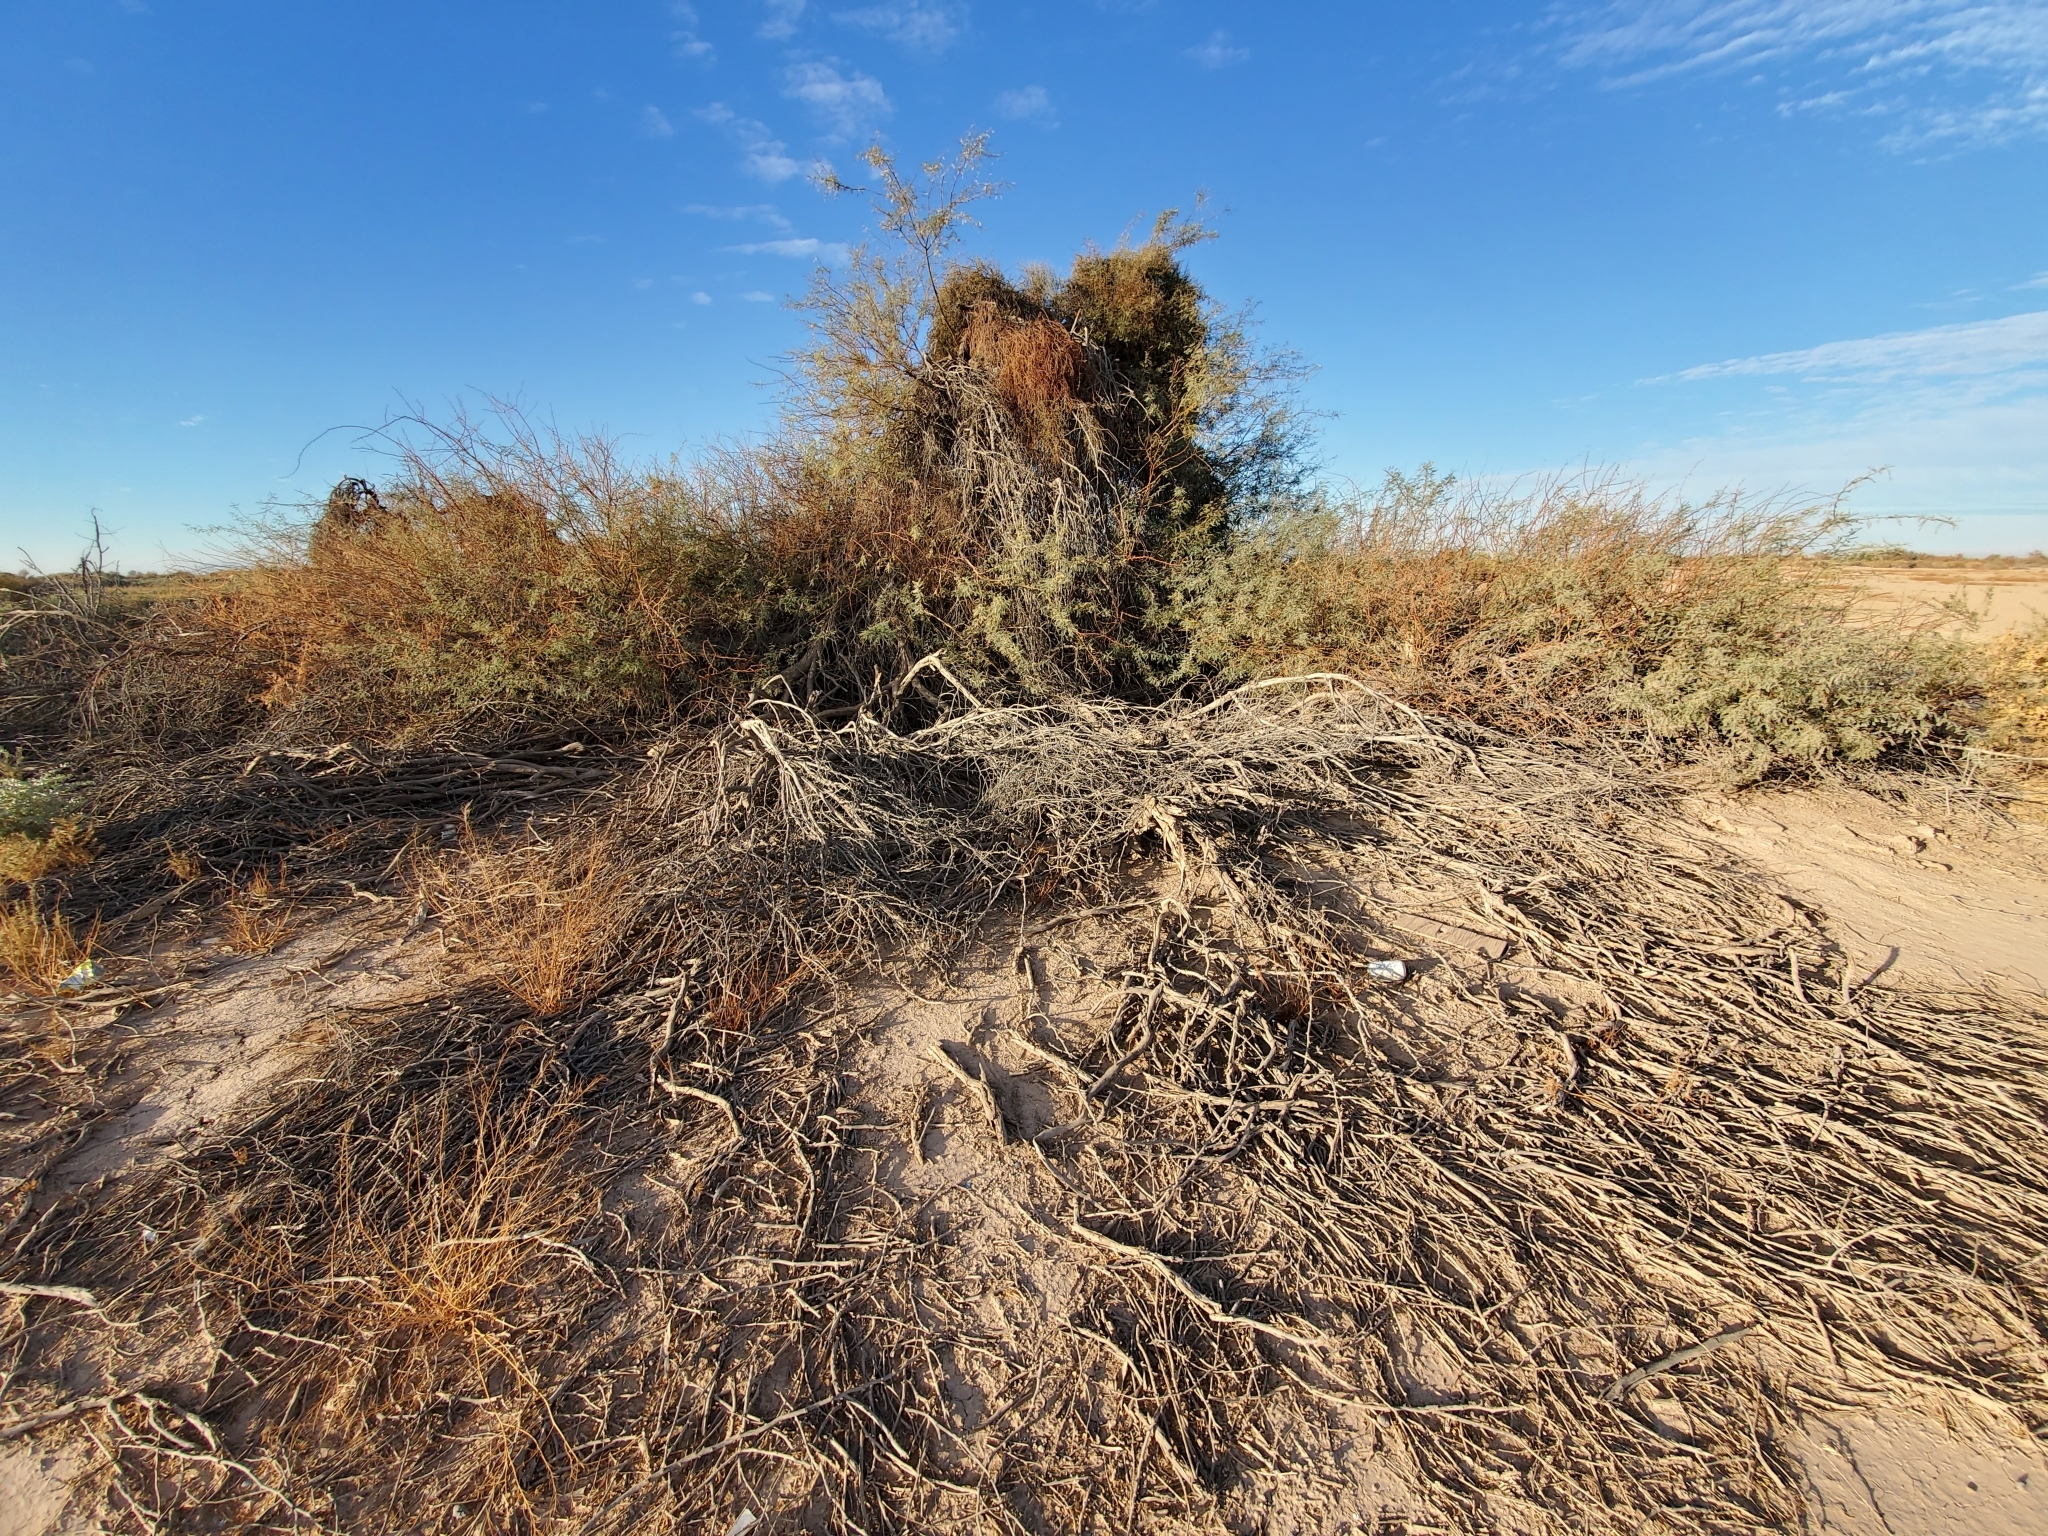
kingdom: Plantae
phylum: Tracheophyta
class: Magnoliopsida
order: Fabales
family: Fabaceae
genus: Prosopis
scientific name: Prosopis pubescens
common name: Screw-bean
